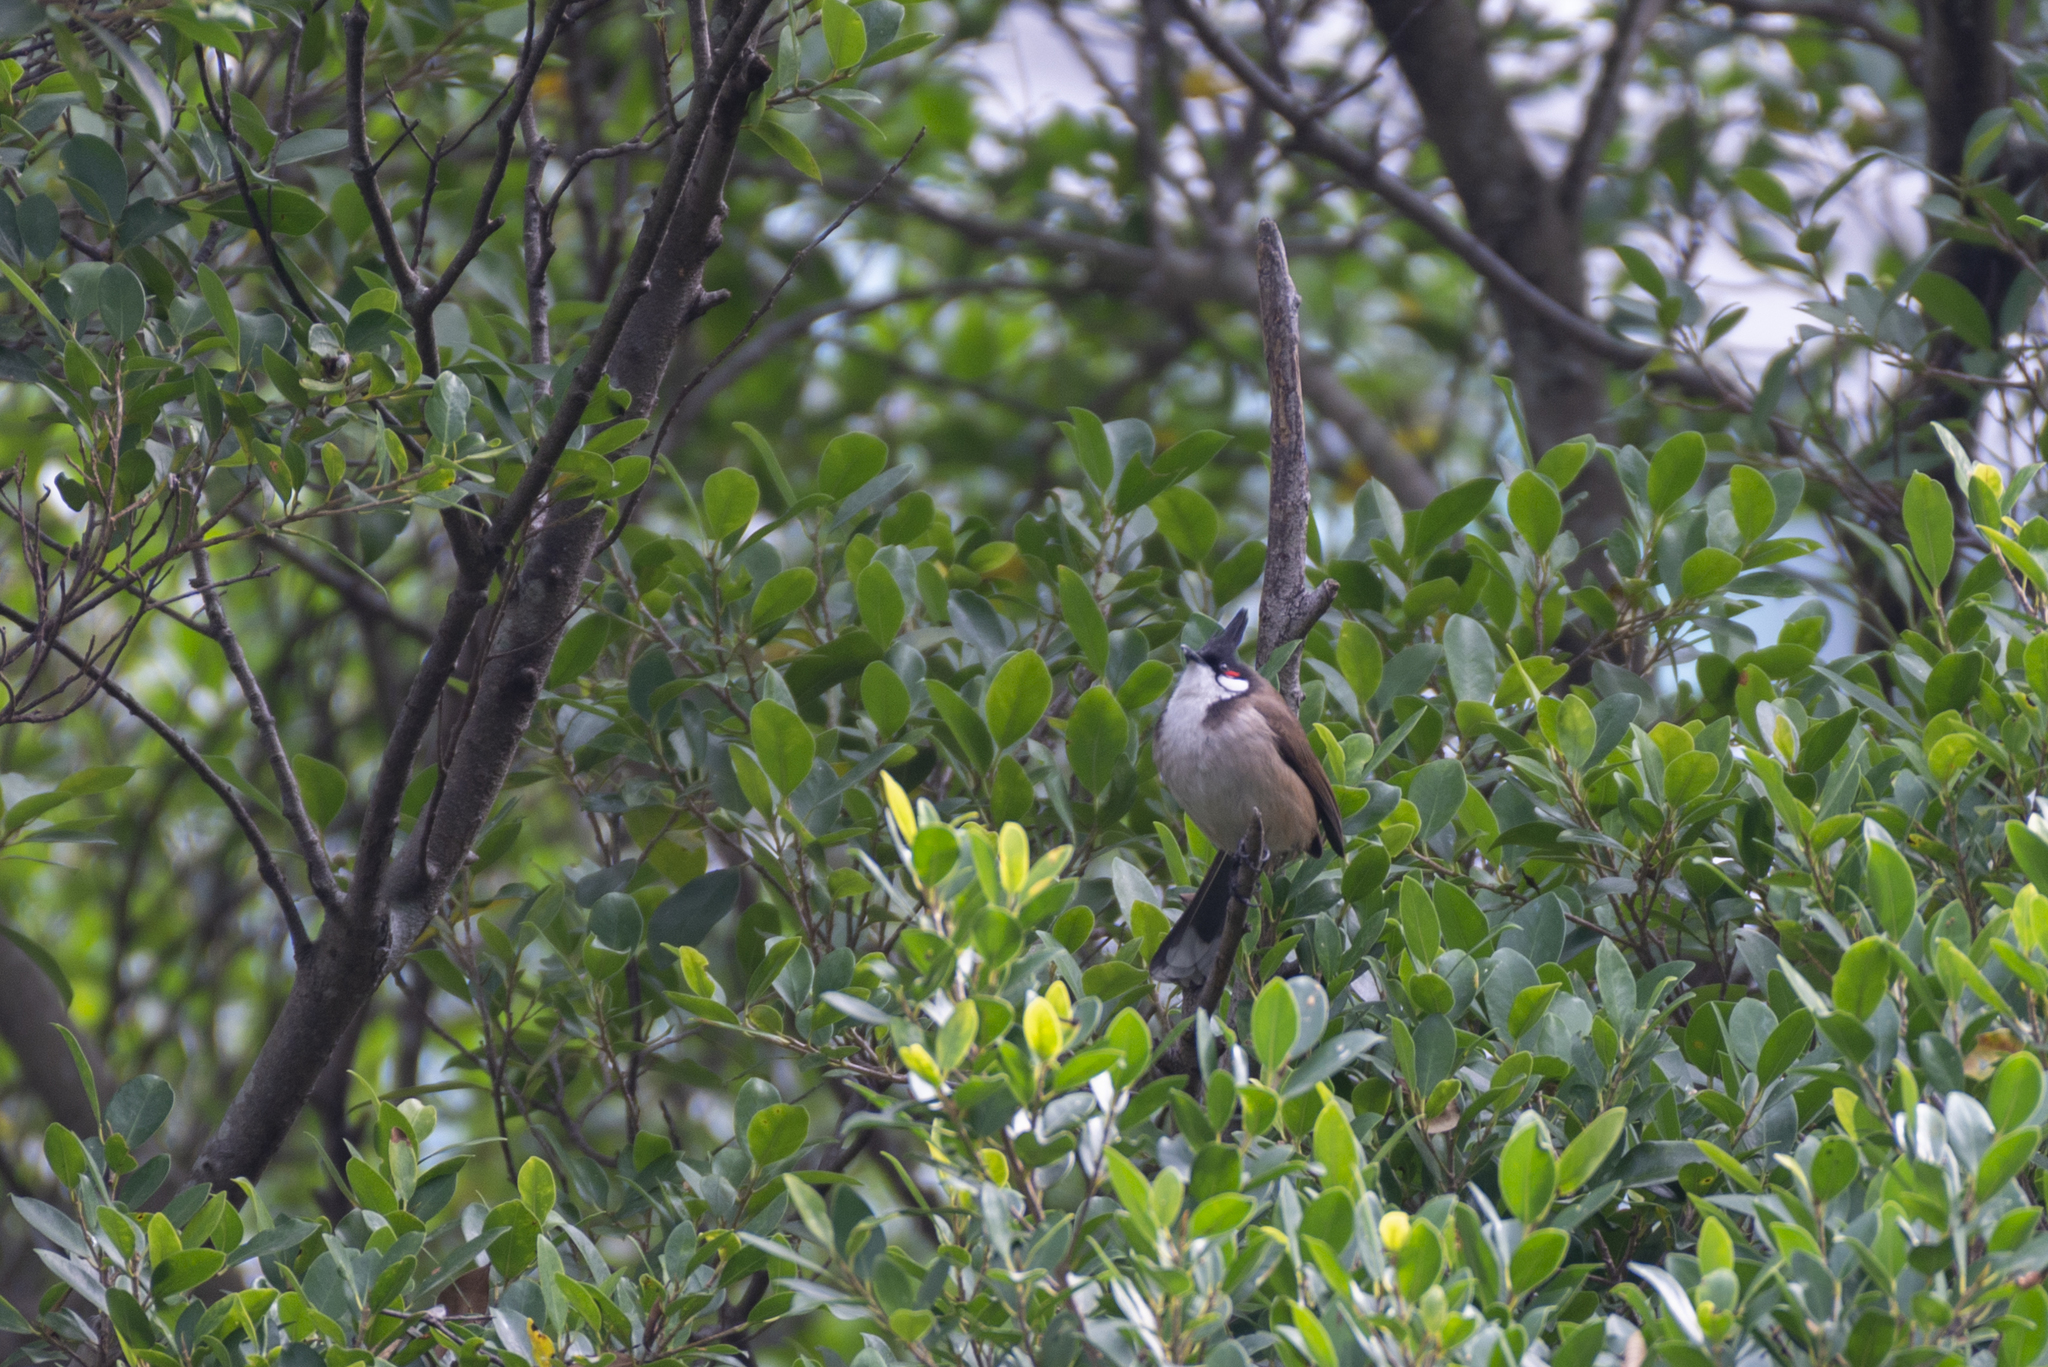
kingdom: Animalia
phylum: Chordata
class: Aves
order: Passeriformes
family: Pycnonotidae
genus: Pycnonotus
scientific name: Pycnonotus jocosus
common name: Red-whiskered bulbul
